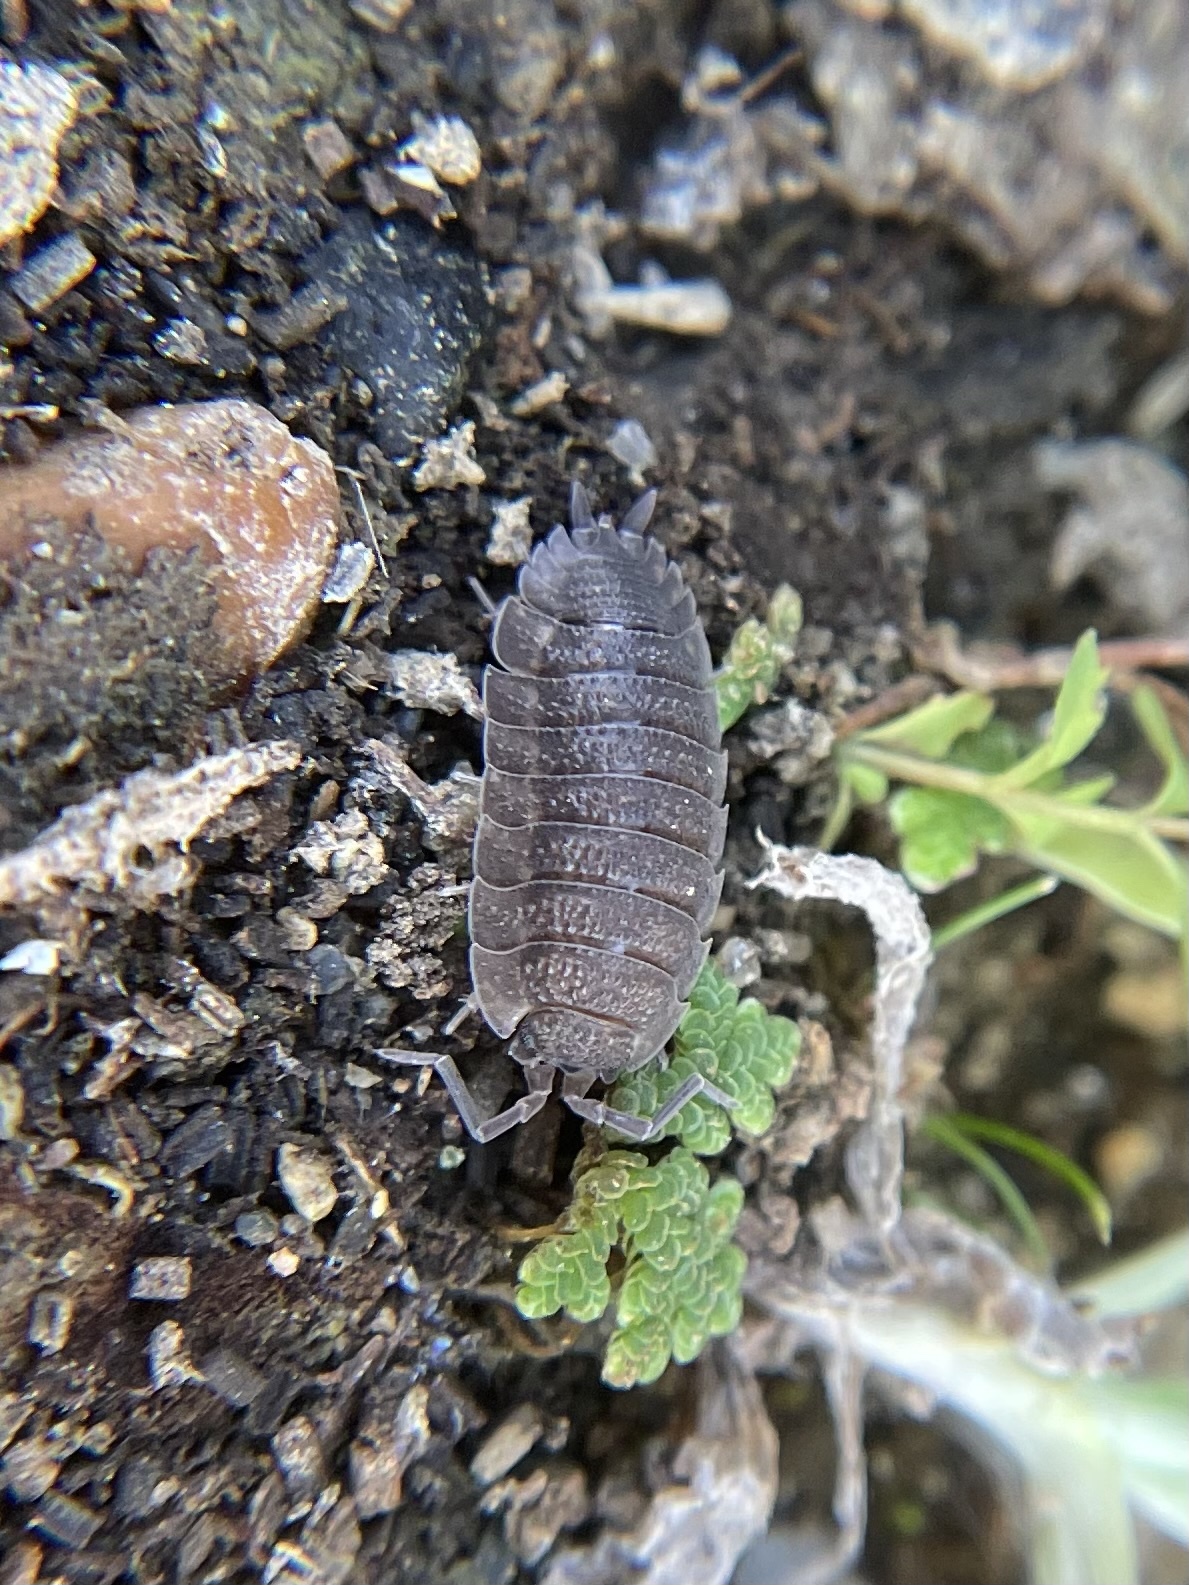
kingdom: Animalia
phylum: Arthropoda
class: Malacostraca
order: Isopoda
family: Porcellionidae
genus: Porcellio
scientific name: Porcellio scaber
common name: Common rough woodlouse
